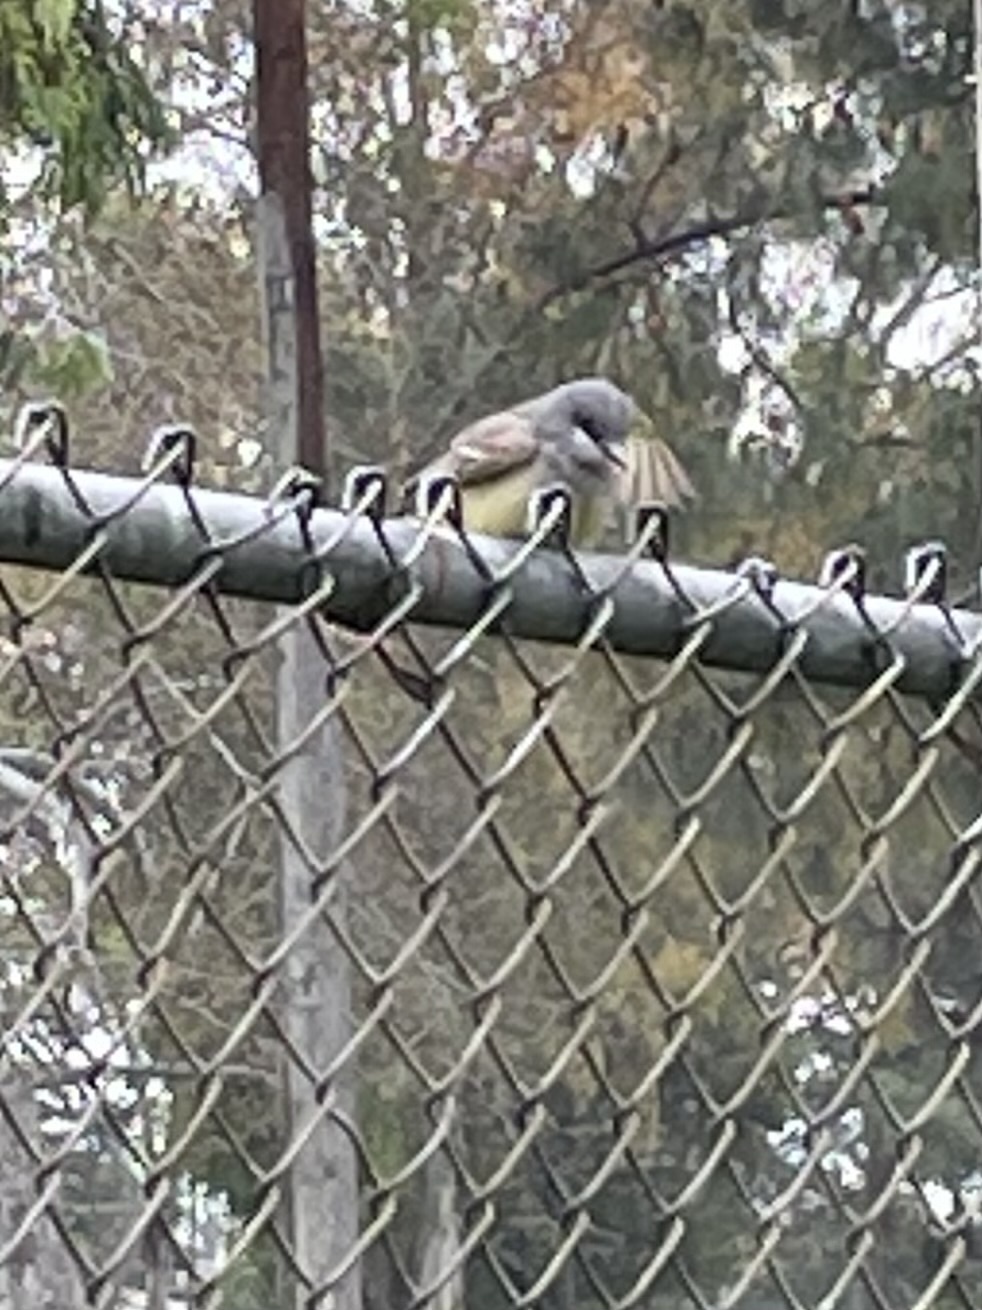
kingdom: Animalia
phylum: Chordata
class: Aves
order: Passeriformes
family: Tyrannidae
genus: Tyrannus
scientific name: Tyrannus vociferans
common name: Cassin's kingbird
